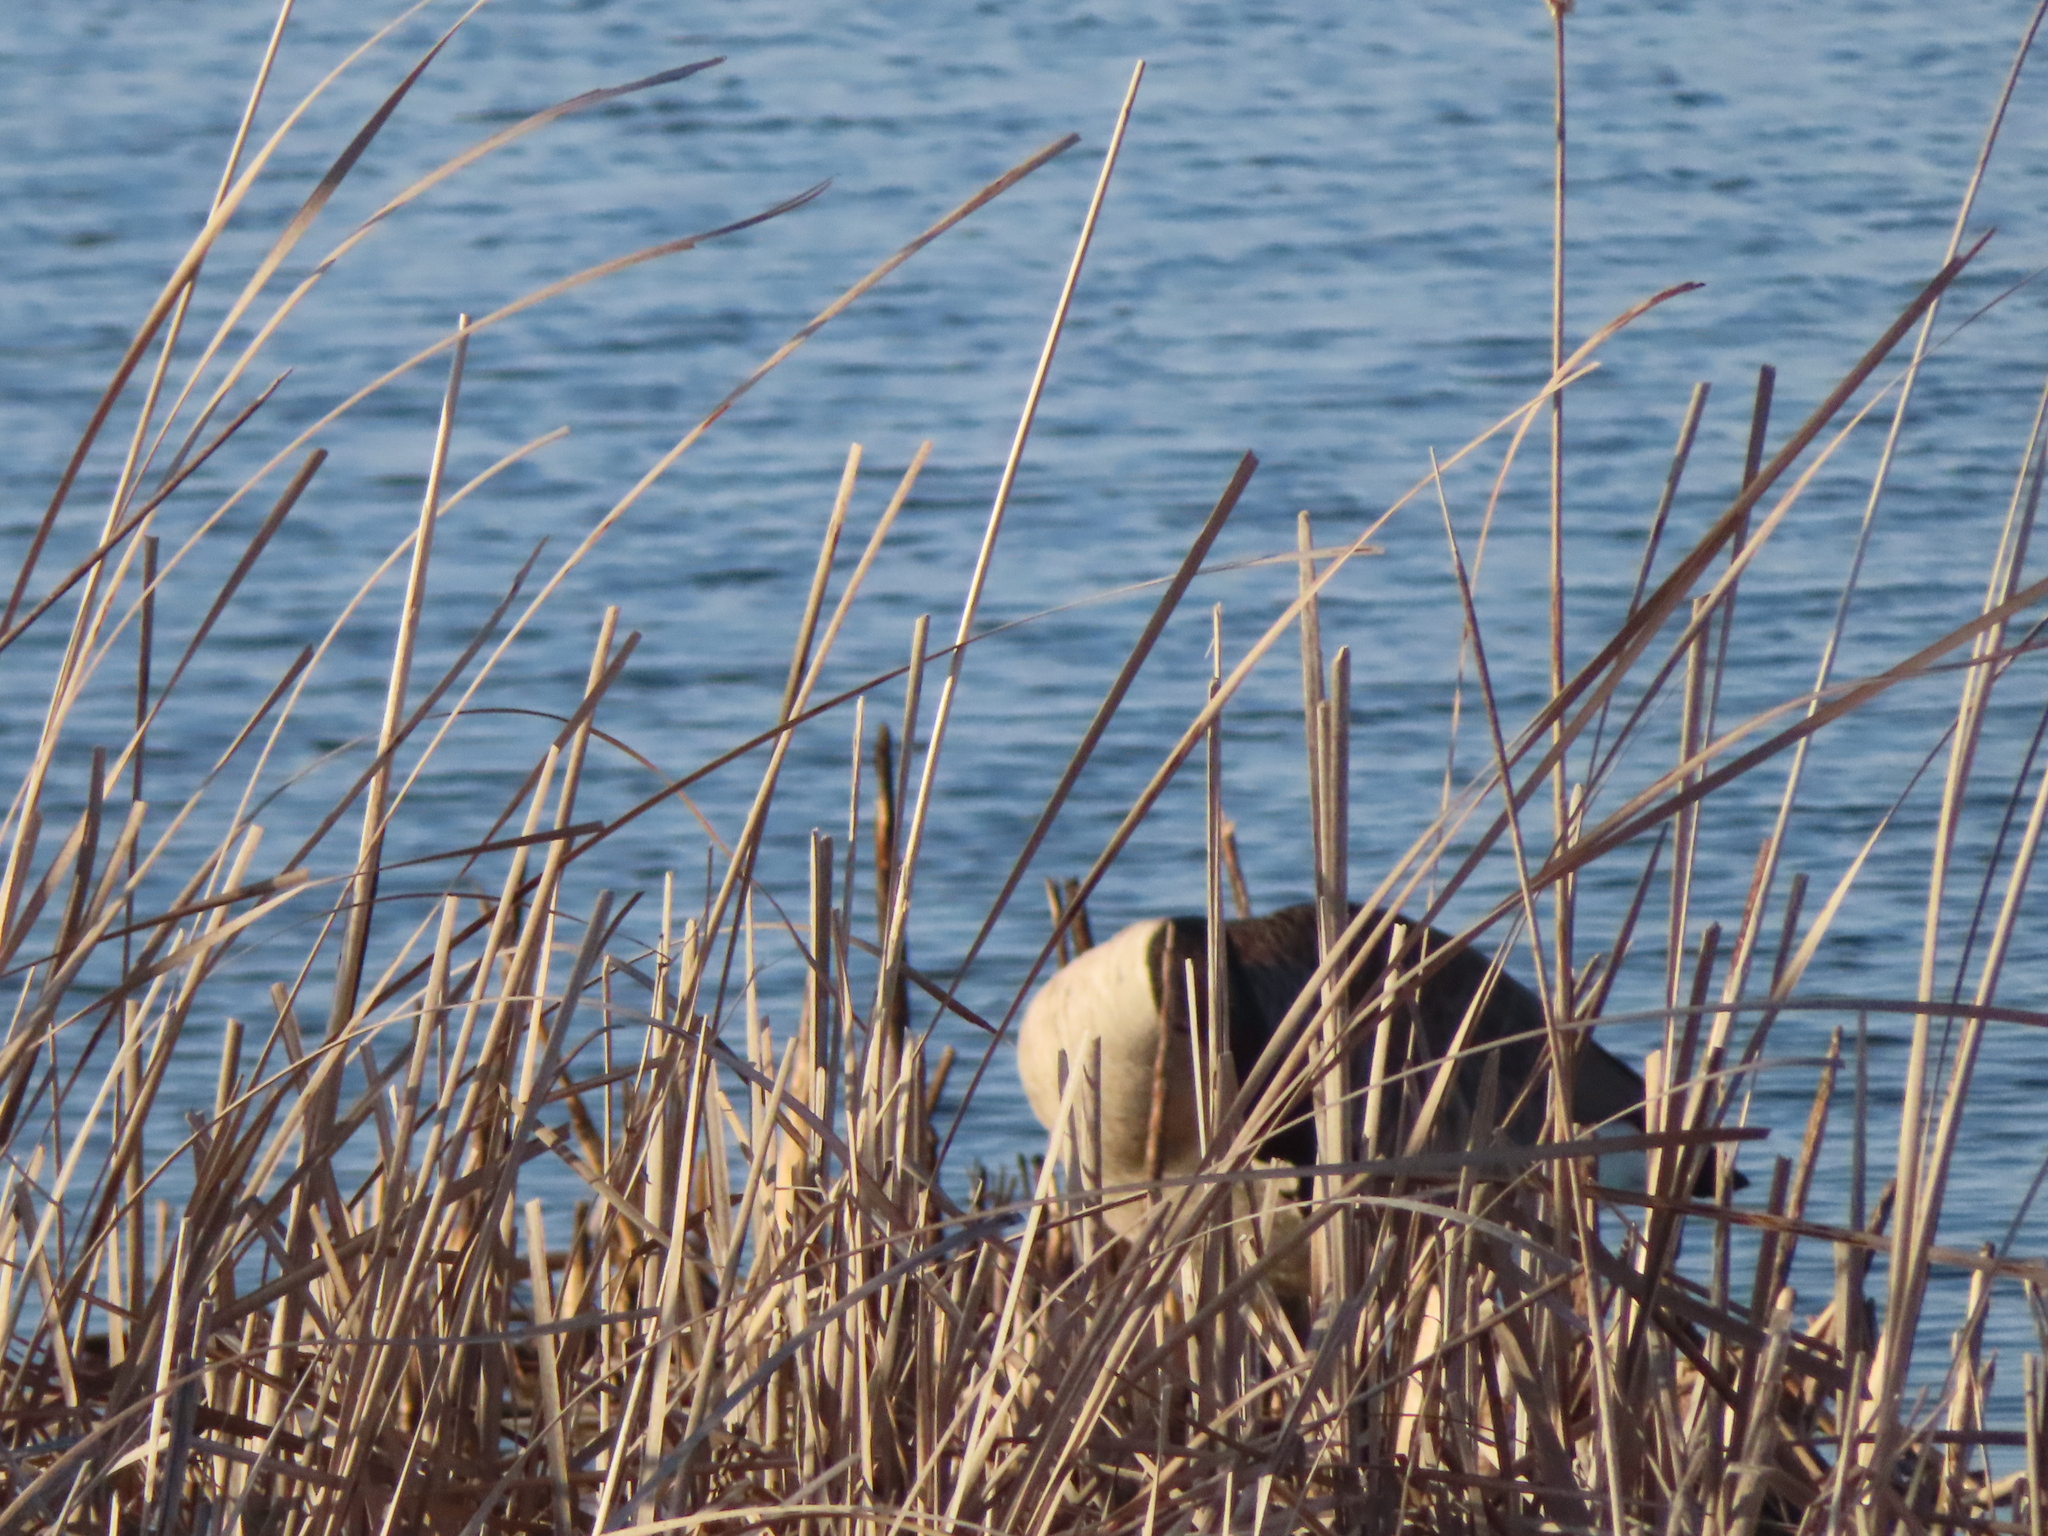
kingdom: Animalia
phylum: Chordata
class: Aves
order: Anseriformes
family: Anatidae
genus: Branta
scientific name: Branta canadensis
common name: Canada goose
